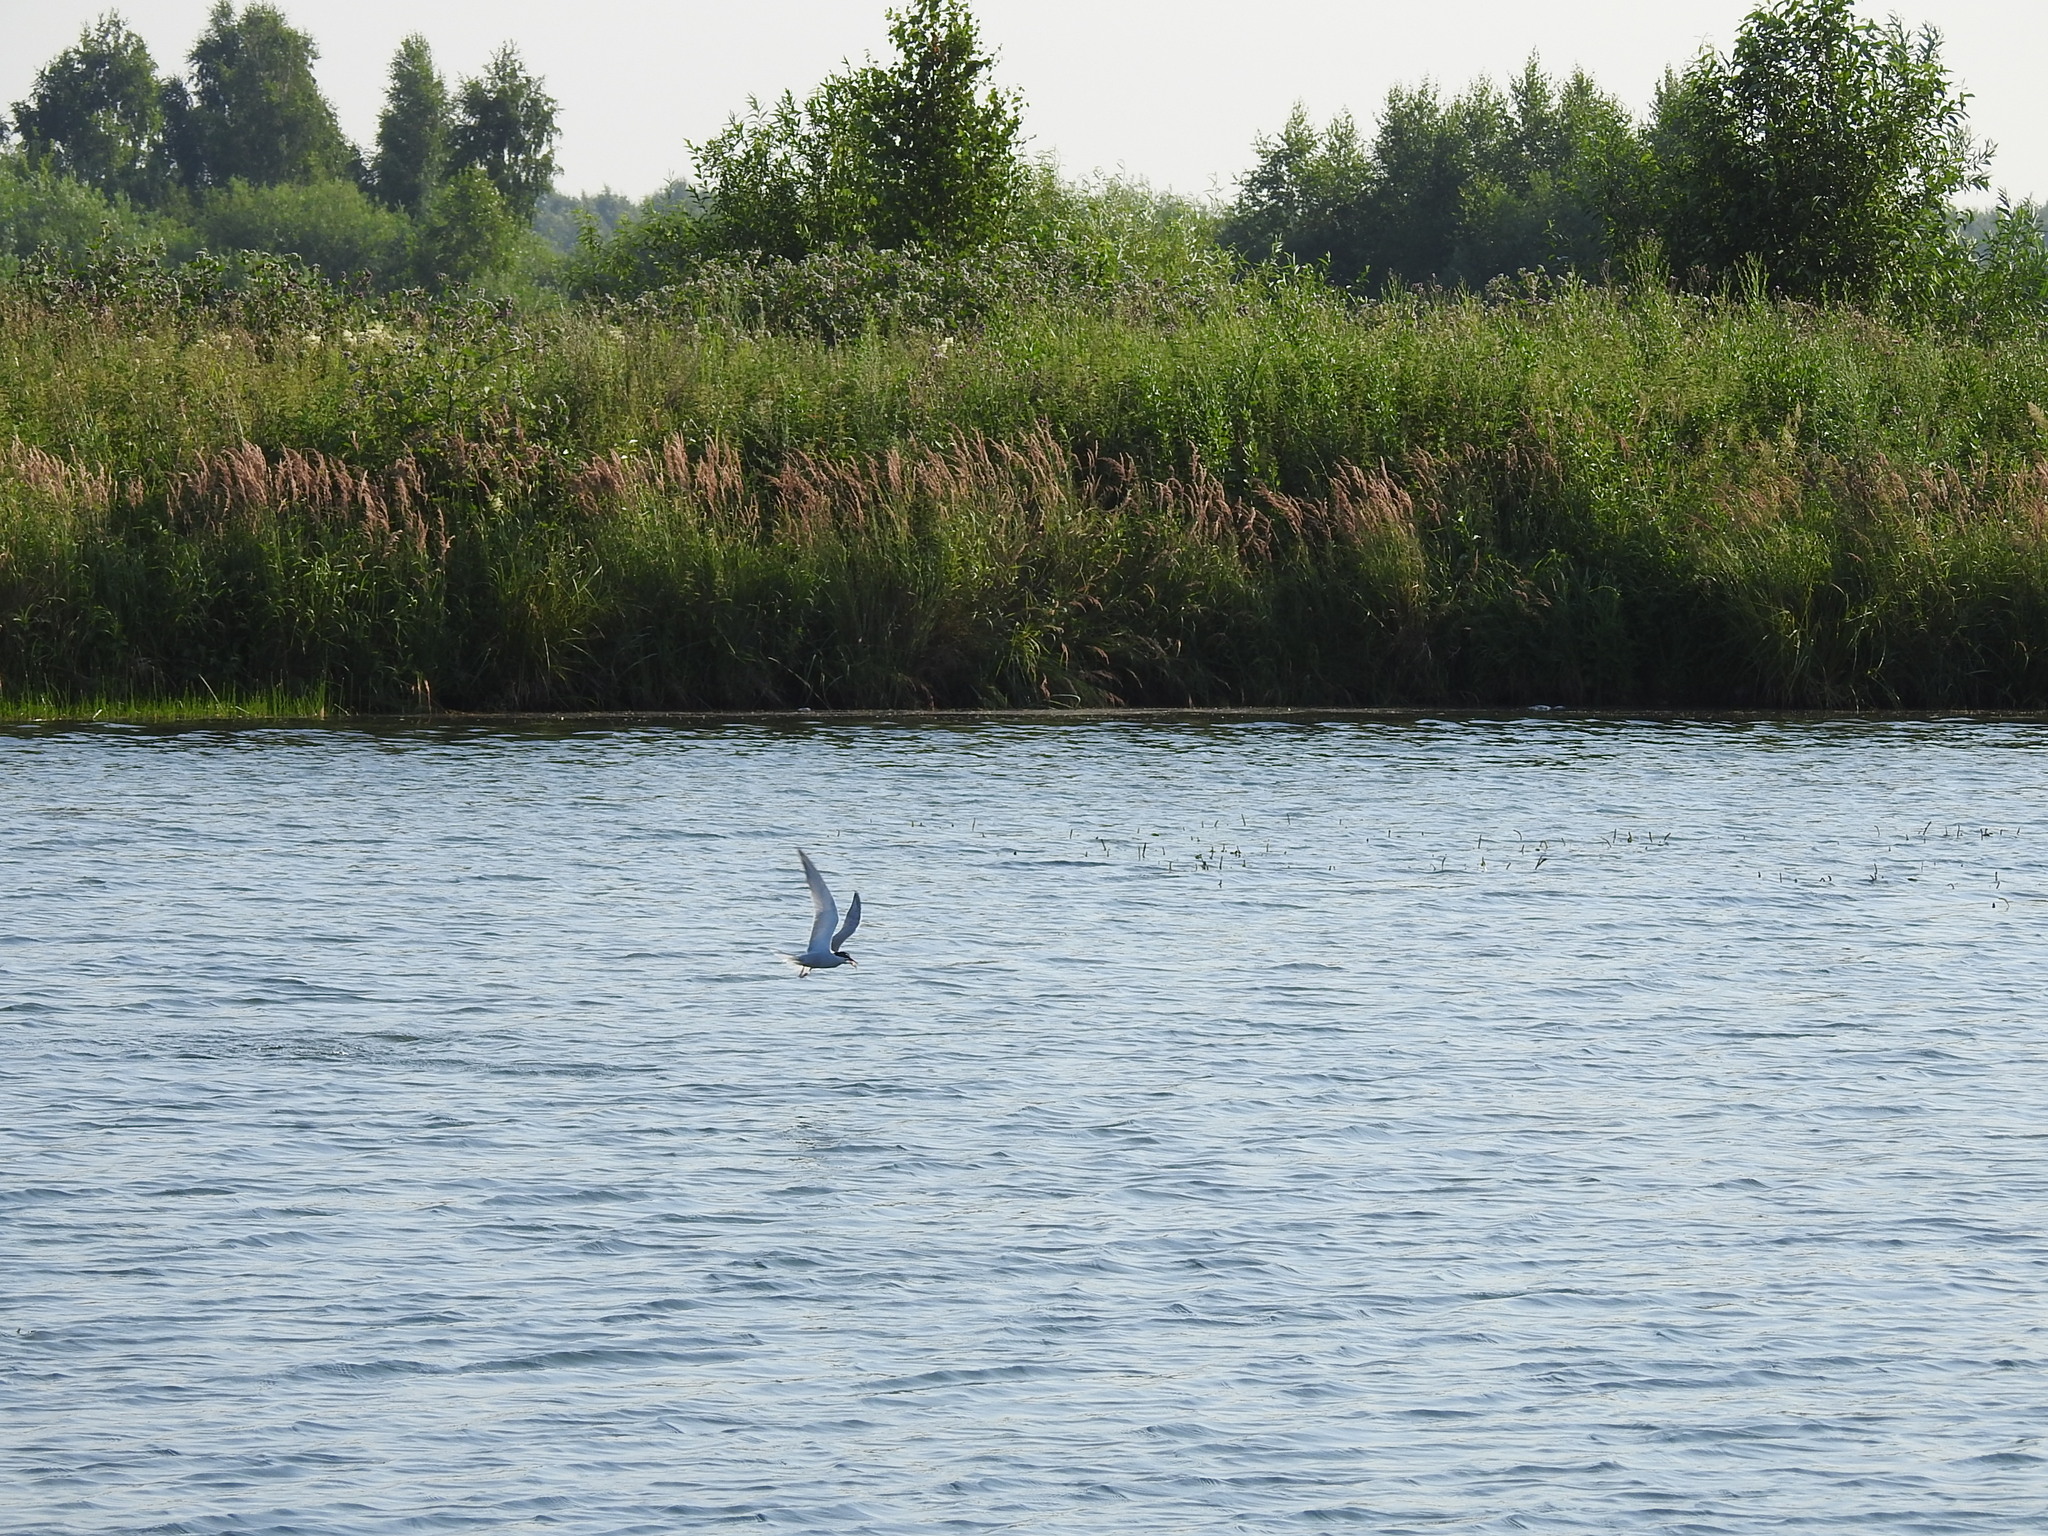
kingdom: Animalia
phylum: Chordata
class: Aves
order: Charadriiformes
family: Laridae
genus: Sterna
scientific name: Sterna hirundo
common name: Common tern
